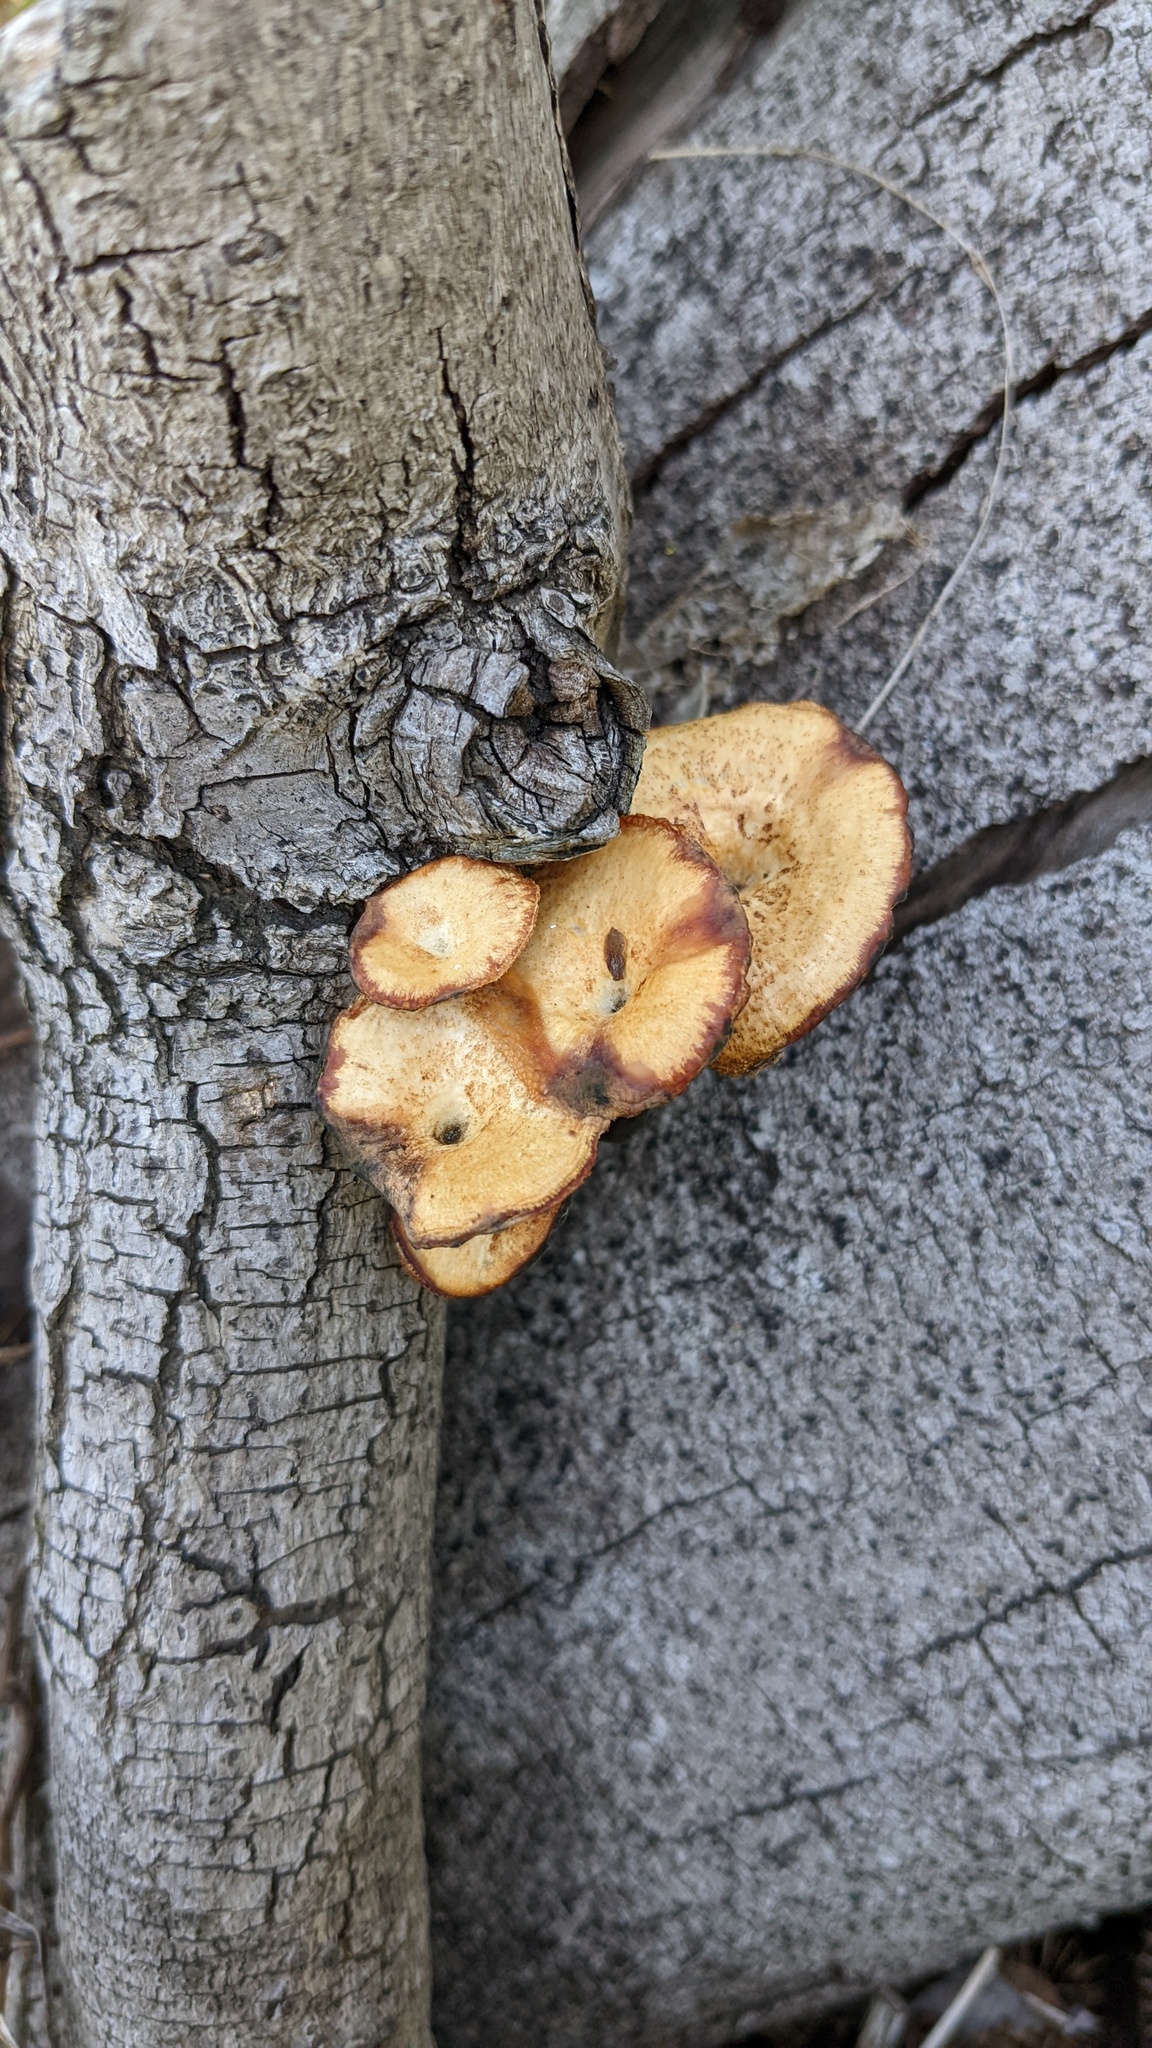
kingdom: Fungi
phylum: Basidiomycota
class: Agaricomycetes
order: Polyporales
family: Polyporaceae
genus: Lentinus
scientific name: Lentinus arcularius
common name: Spring polypore
